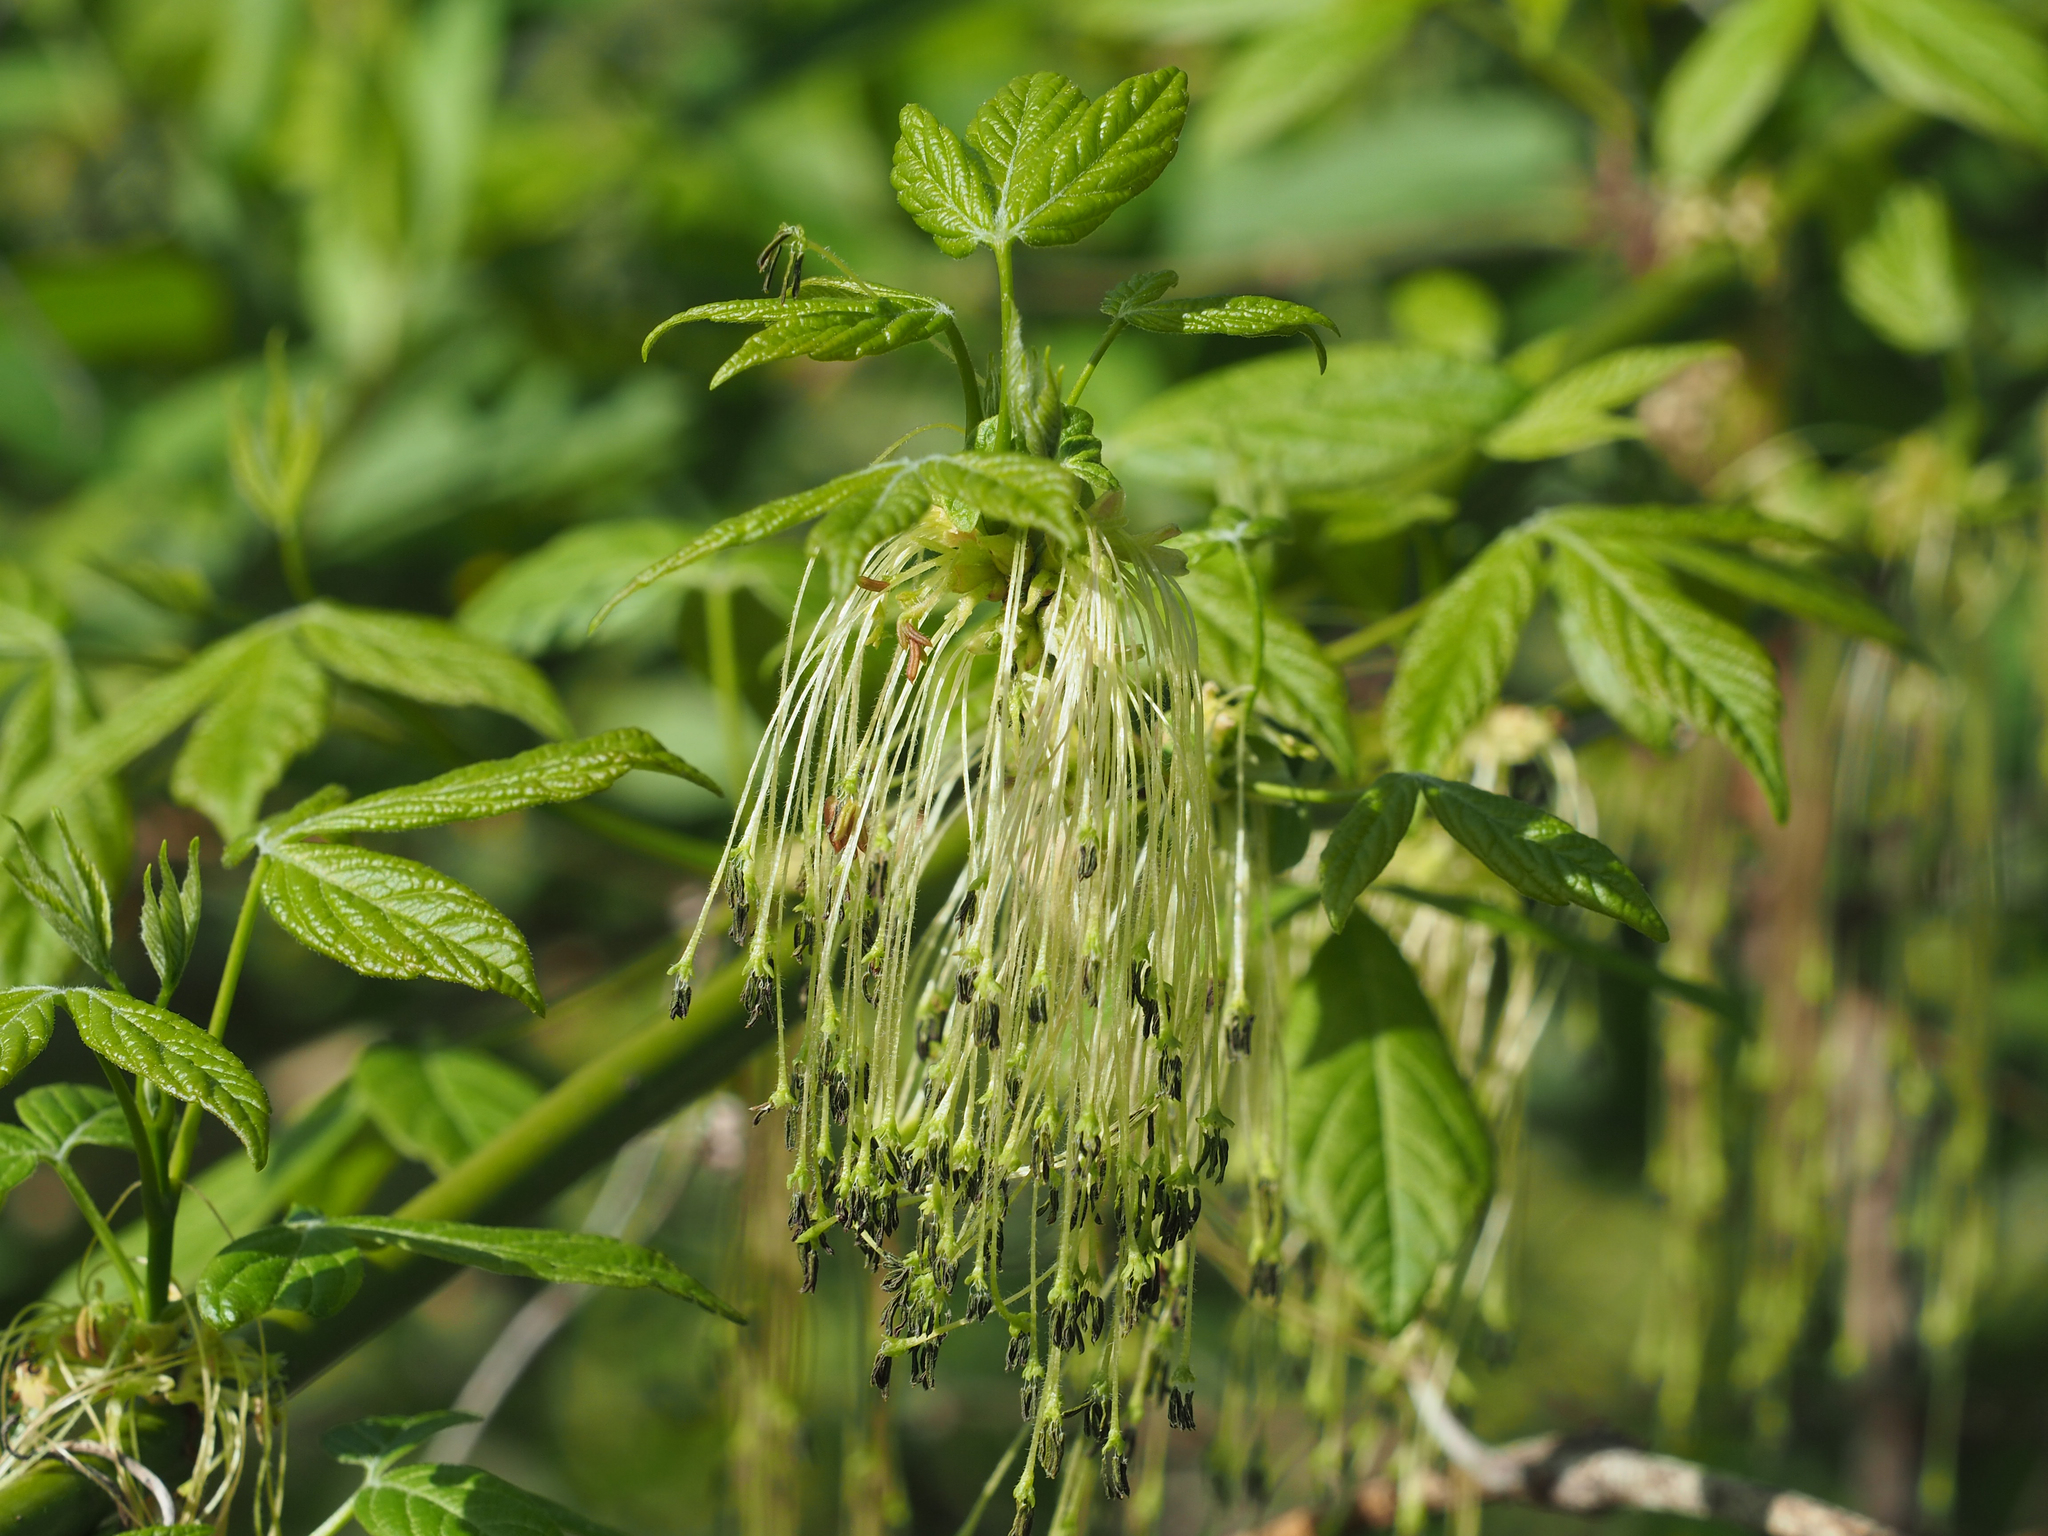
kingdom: Plantae
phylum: Tracheophyta
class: Magnoliopsida
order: Sapindales
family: Sapindaceae
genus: Acer
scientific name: Acer negundo
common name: Ashleaf maple
